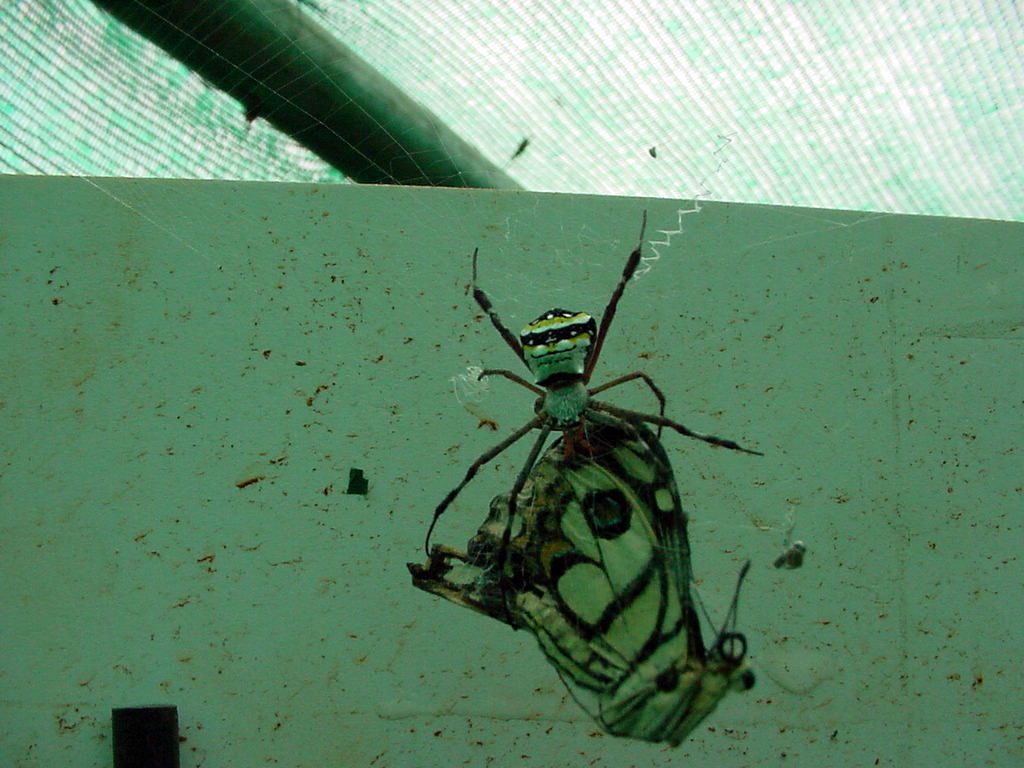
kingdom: Animalia
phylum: Arthropoda
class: Insecta
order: Lepidoptera
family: Papilionidae
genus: Papilio
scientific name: Papilio demoleus
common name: Lime butterfly
